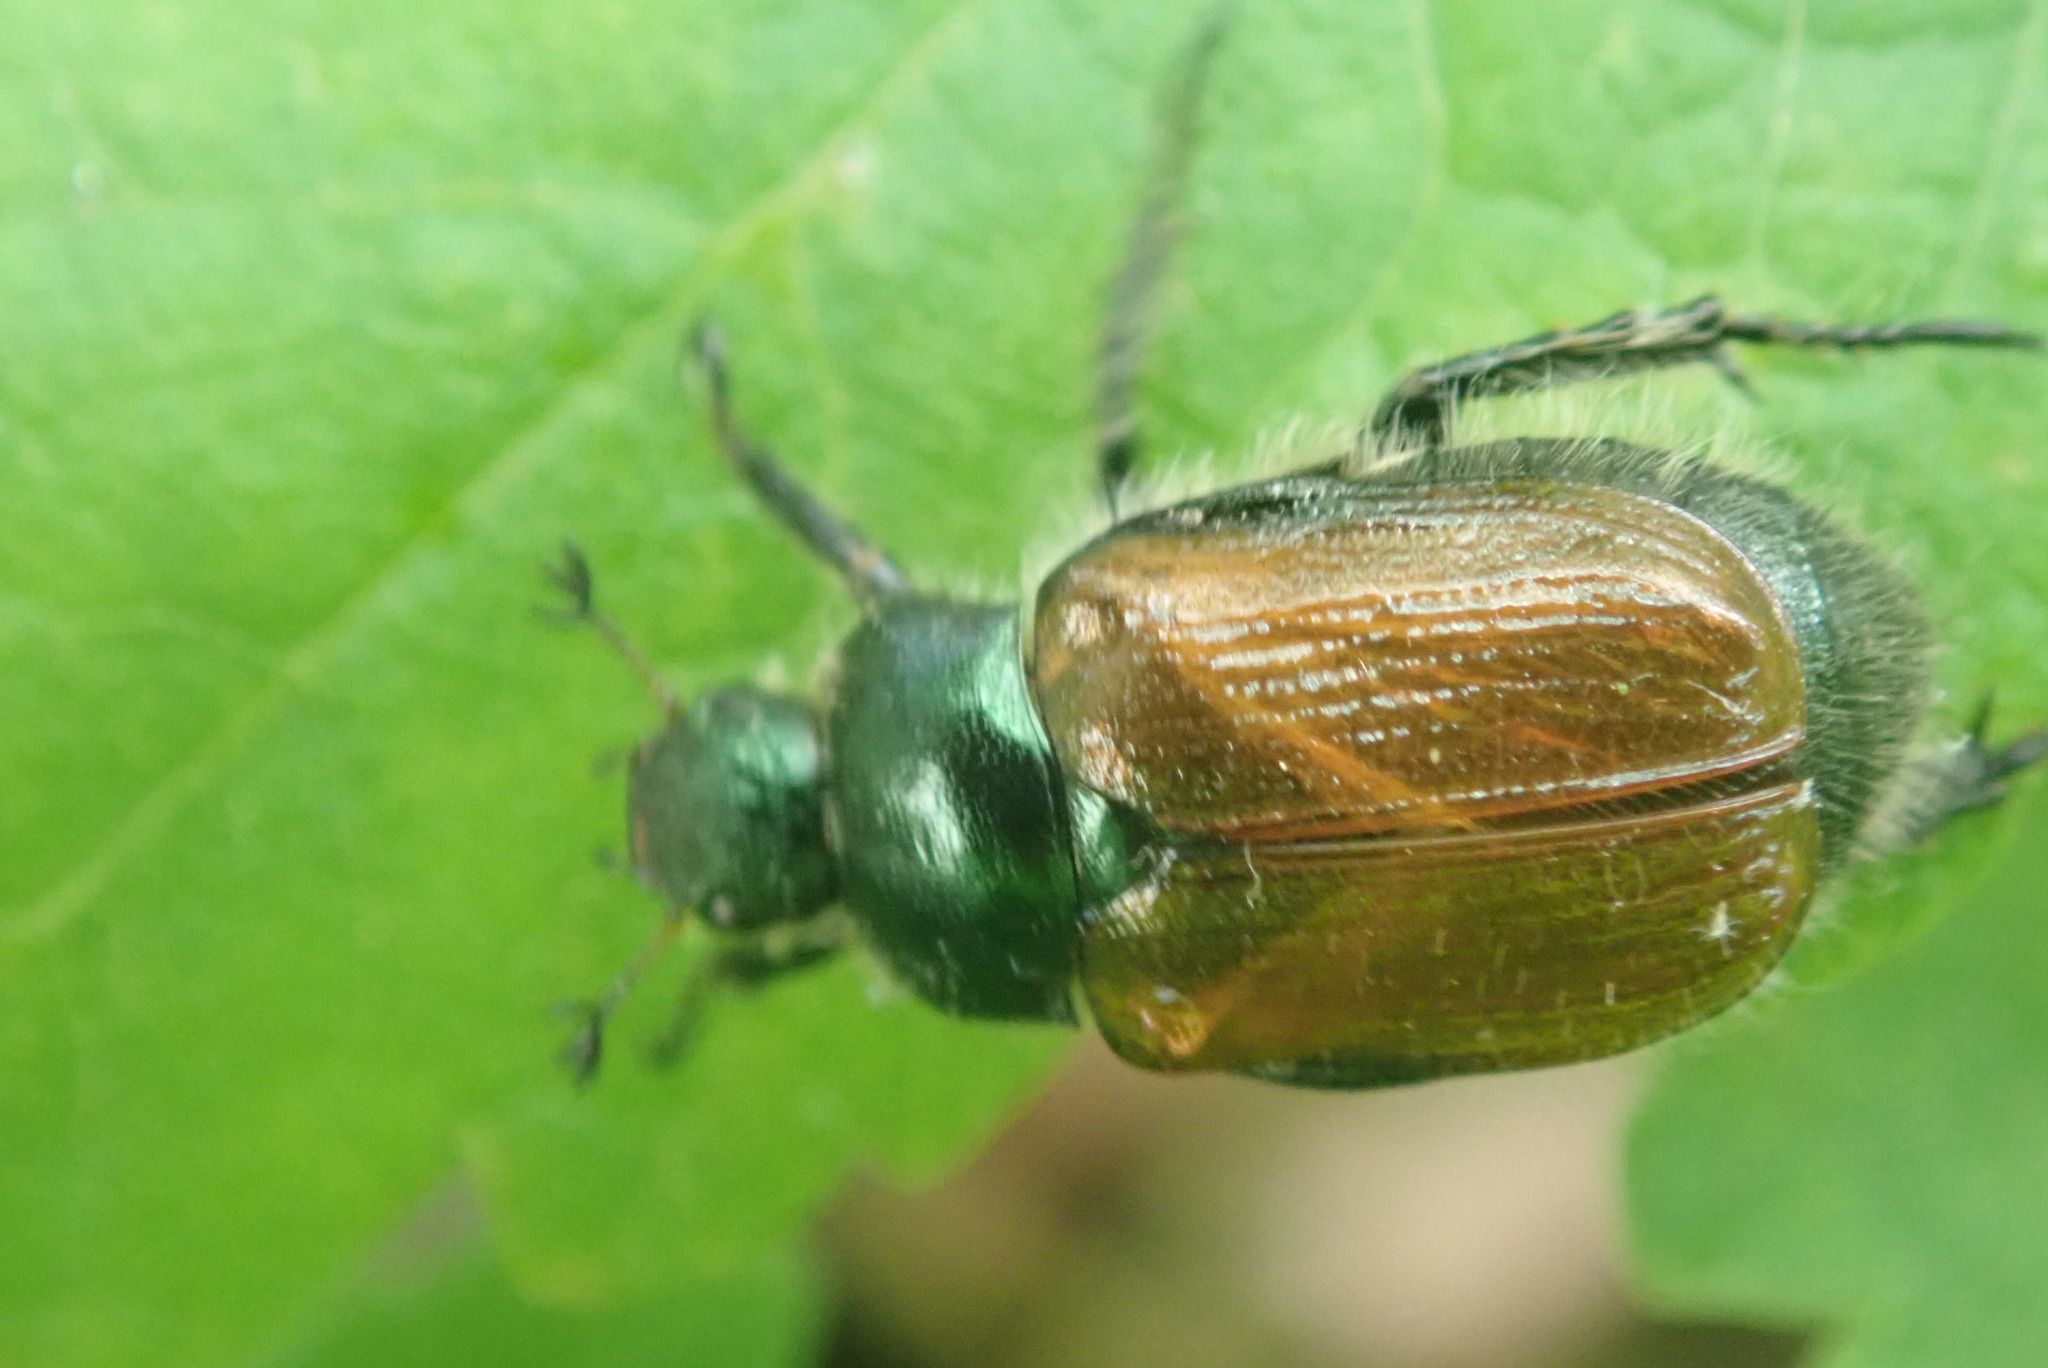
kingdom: Animalia
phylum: Arthropoda
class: Insecta
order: Coleoptera
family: Scarabaeidae
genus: Phyllopertha
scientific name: Phyllopertha horticola
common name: Garden chafer
